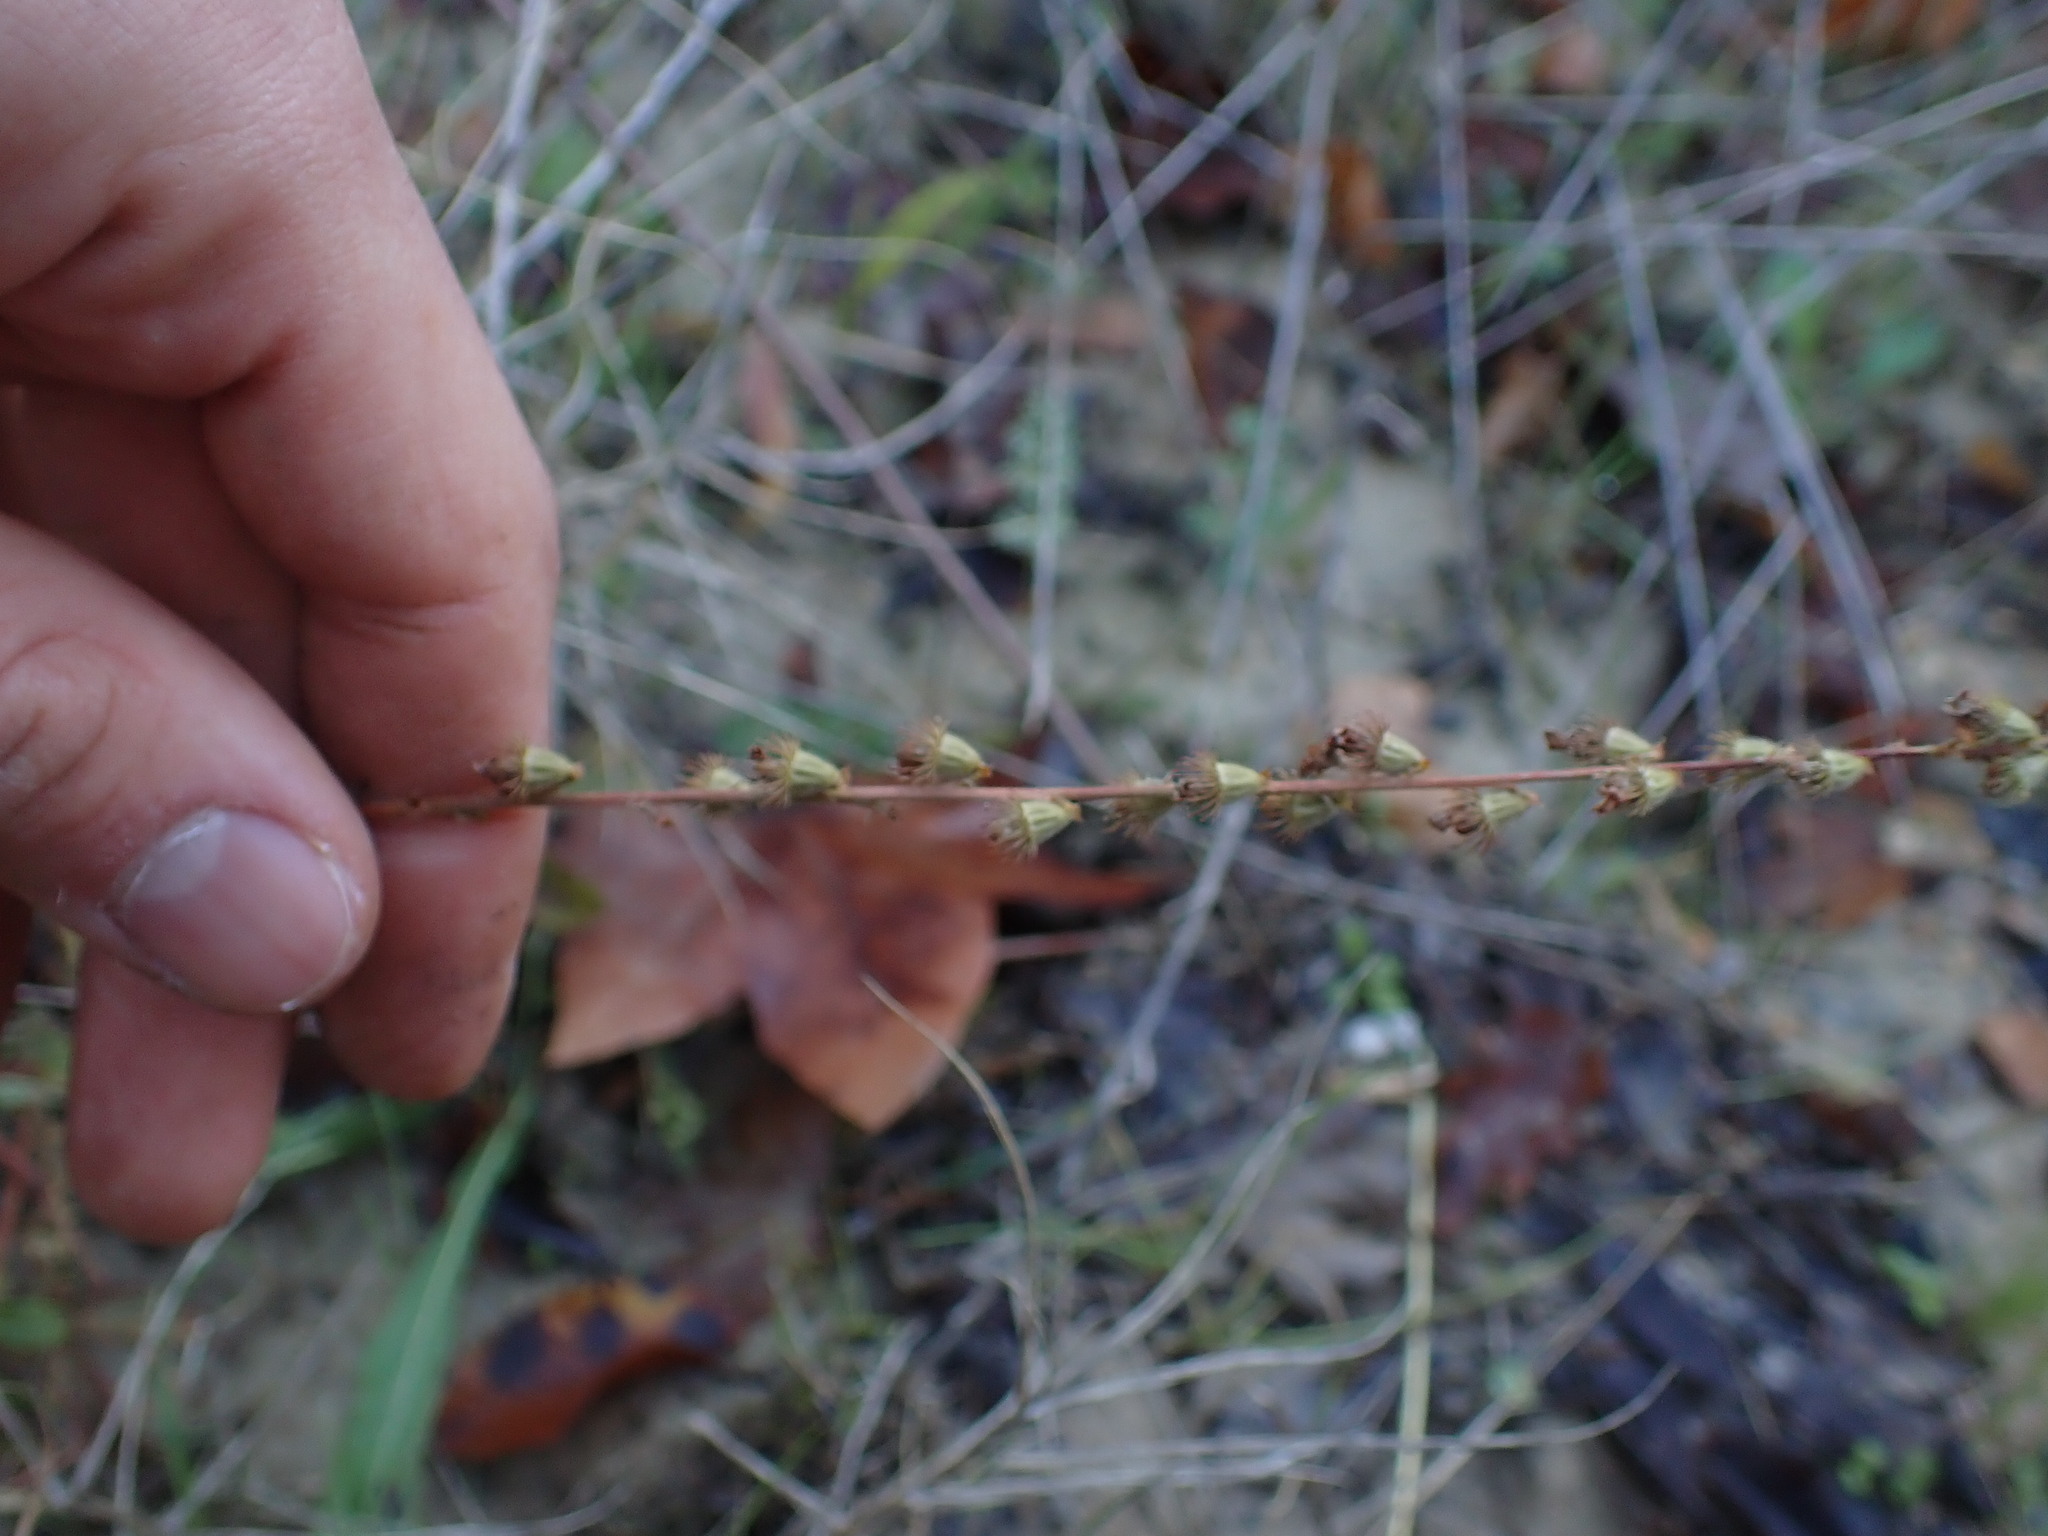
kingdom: Plantae
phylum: Tracheophyta
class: Magnoliopsida
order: Rosales
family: Rosaceae
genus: Agrimonia
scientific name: Agrimonia eupatoria
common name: Agrimony
